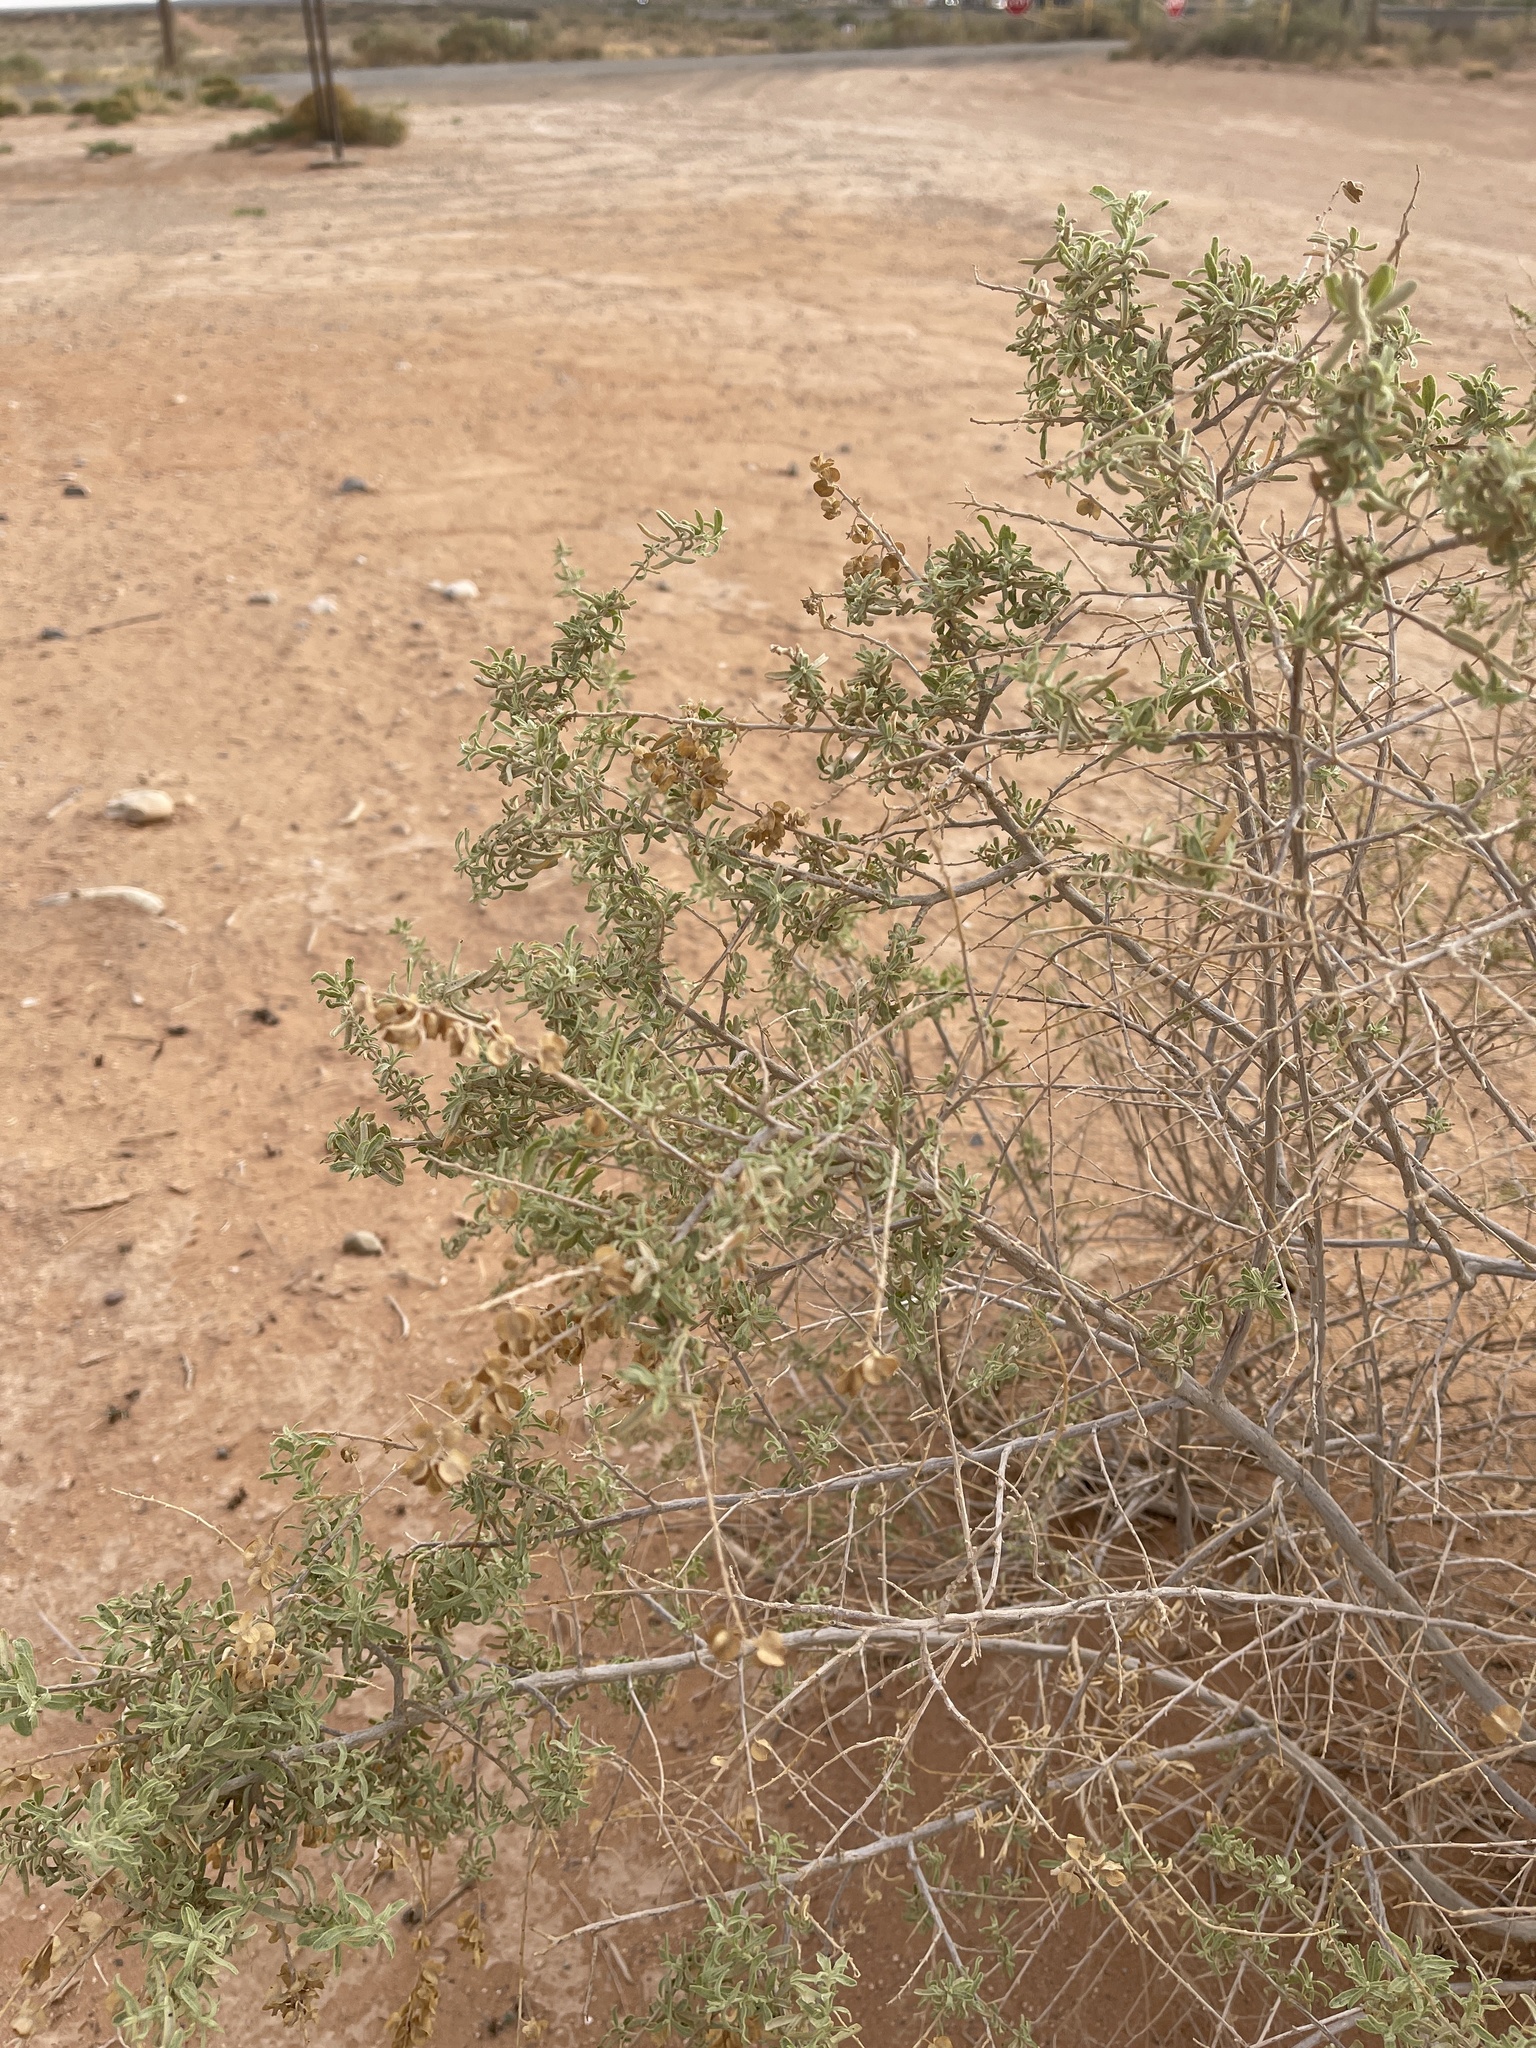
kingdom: Plantae
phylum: Tracheophyta
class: Magnoliopsida
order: Caryophyllales
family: Amaranthaceae
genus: Atriplex
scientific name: Atriplex canescens
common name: Four-wing saltbush
